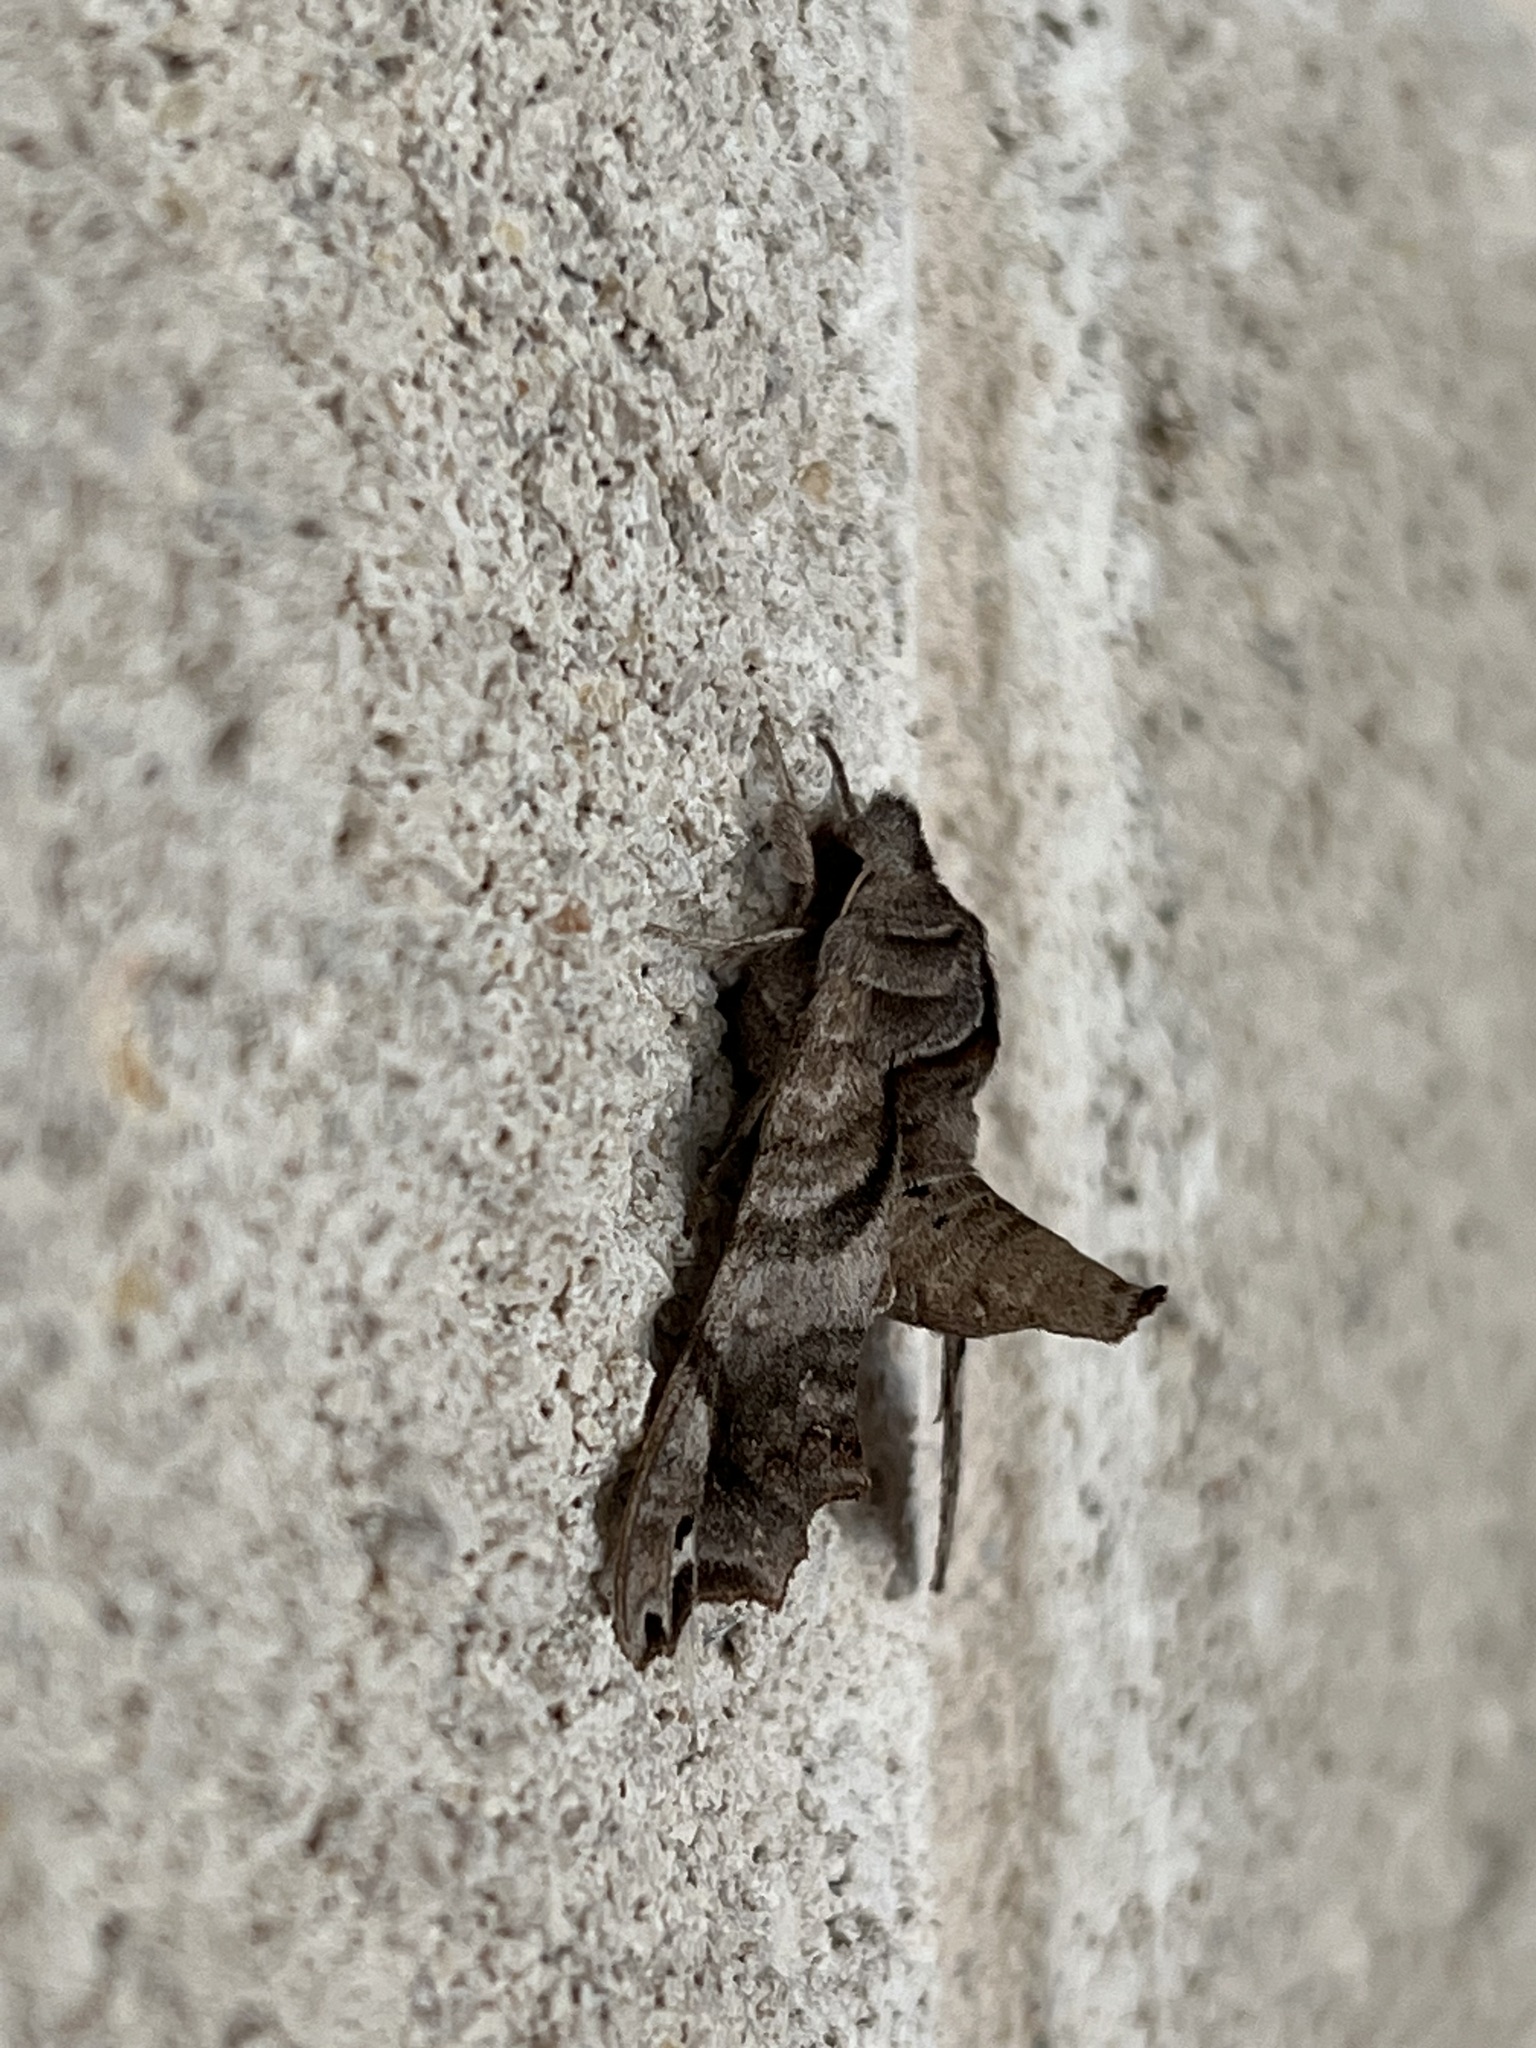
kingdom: Animalia
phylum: Arthropoda
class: Insecta
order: Lepidoptera
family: Sphingidae
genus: Deidamia
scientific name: Deidamia inscriptum
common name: Lettered sphinx
